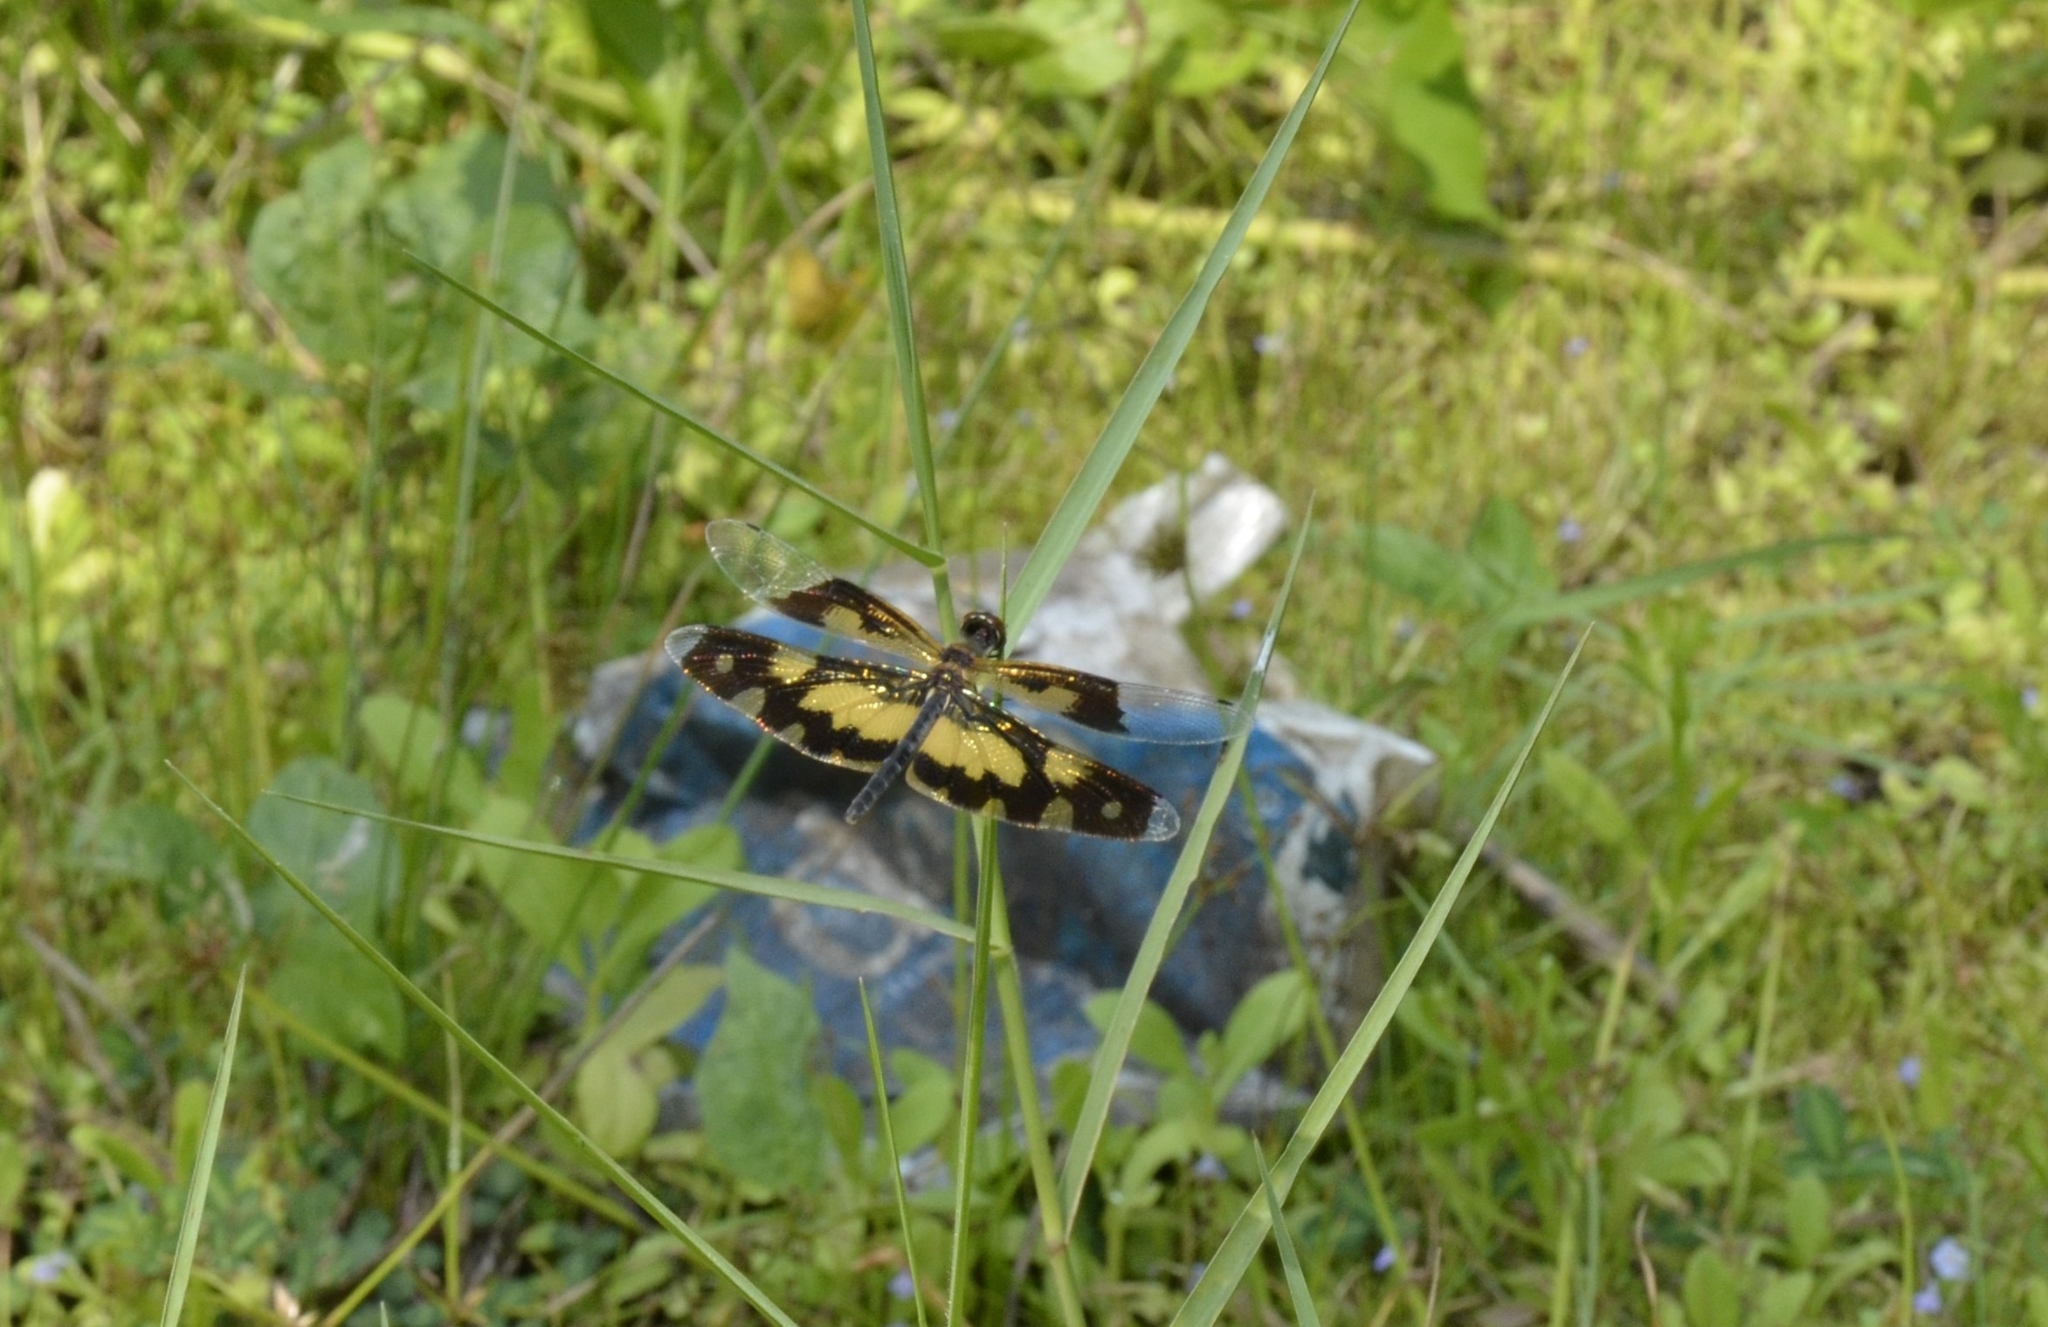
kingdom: Animalia
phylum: Arthropoda
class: Insecta
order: Odonata
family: Libellulidae
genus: Rhyothemis
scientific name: Rhyothemis variegata
